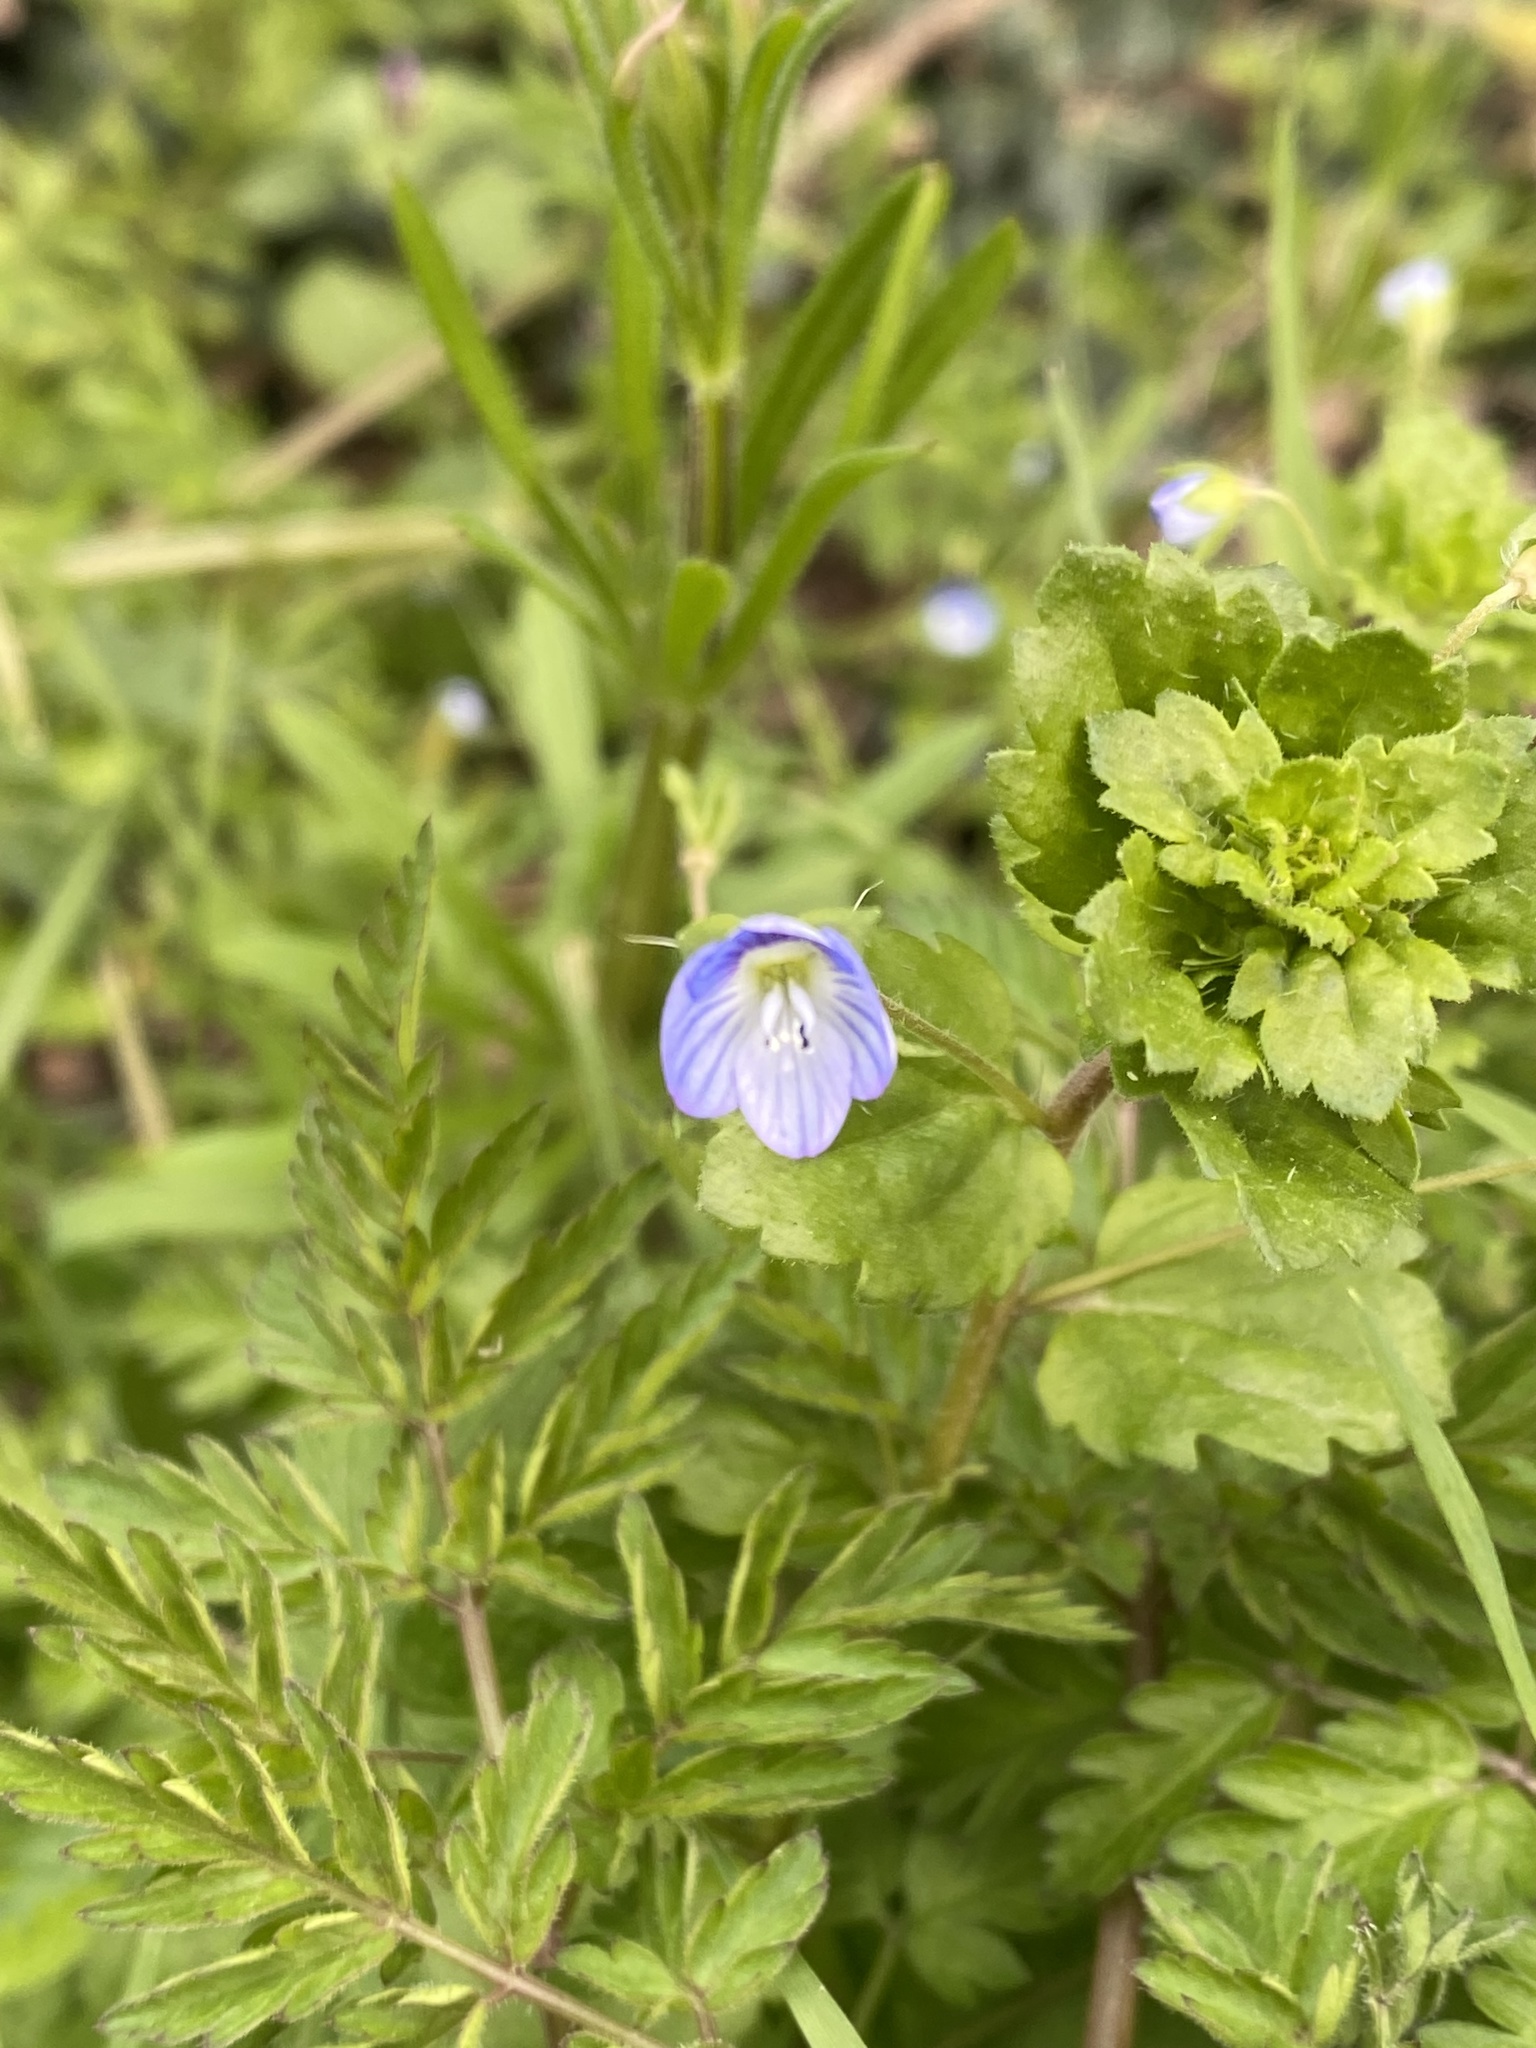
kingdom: Plantae
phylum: Tracheophyta
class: Magnoliopsida
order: Lamiales
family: Plantaginaceae
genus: Veronica
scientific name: Veronica persica
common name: Common field-speedwell
